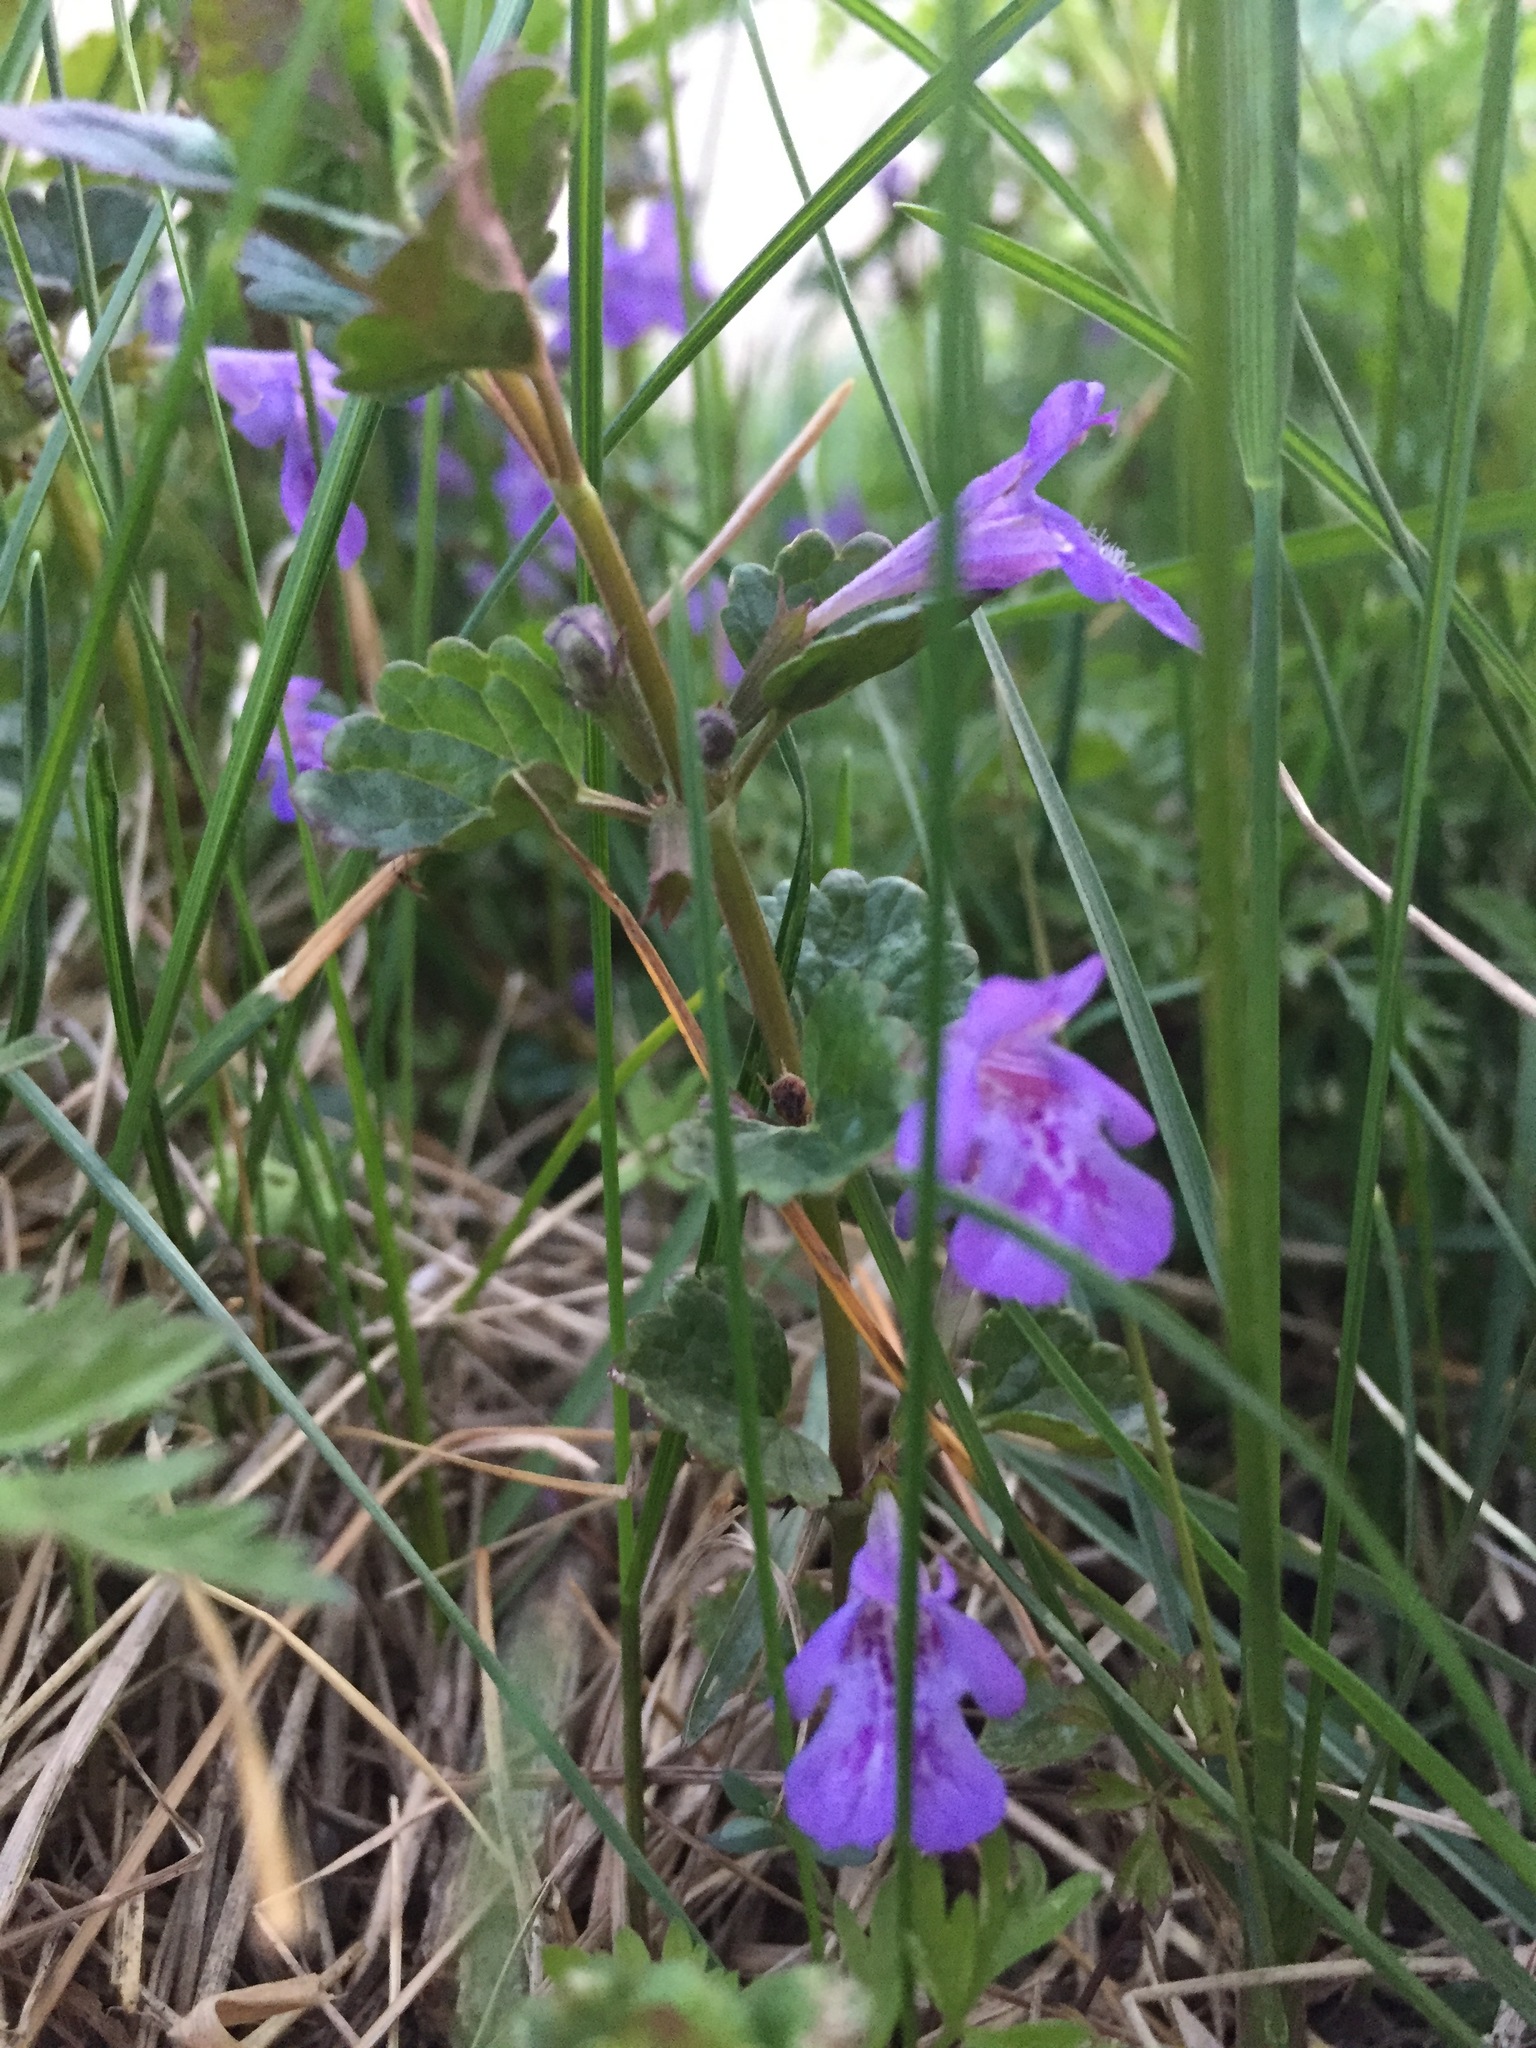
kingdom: Plantae
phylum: Tracheophyta
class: Magnoliopsida
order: Lamiales
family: Lamiaceae
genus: Glechoma
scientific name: Glechoma hederacea
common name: Ground ivy
